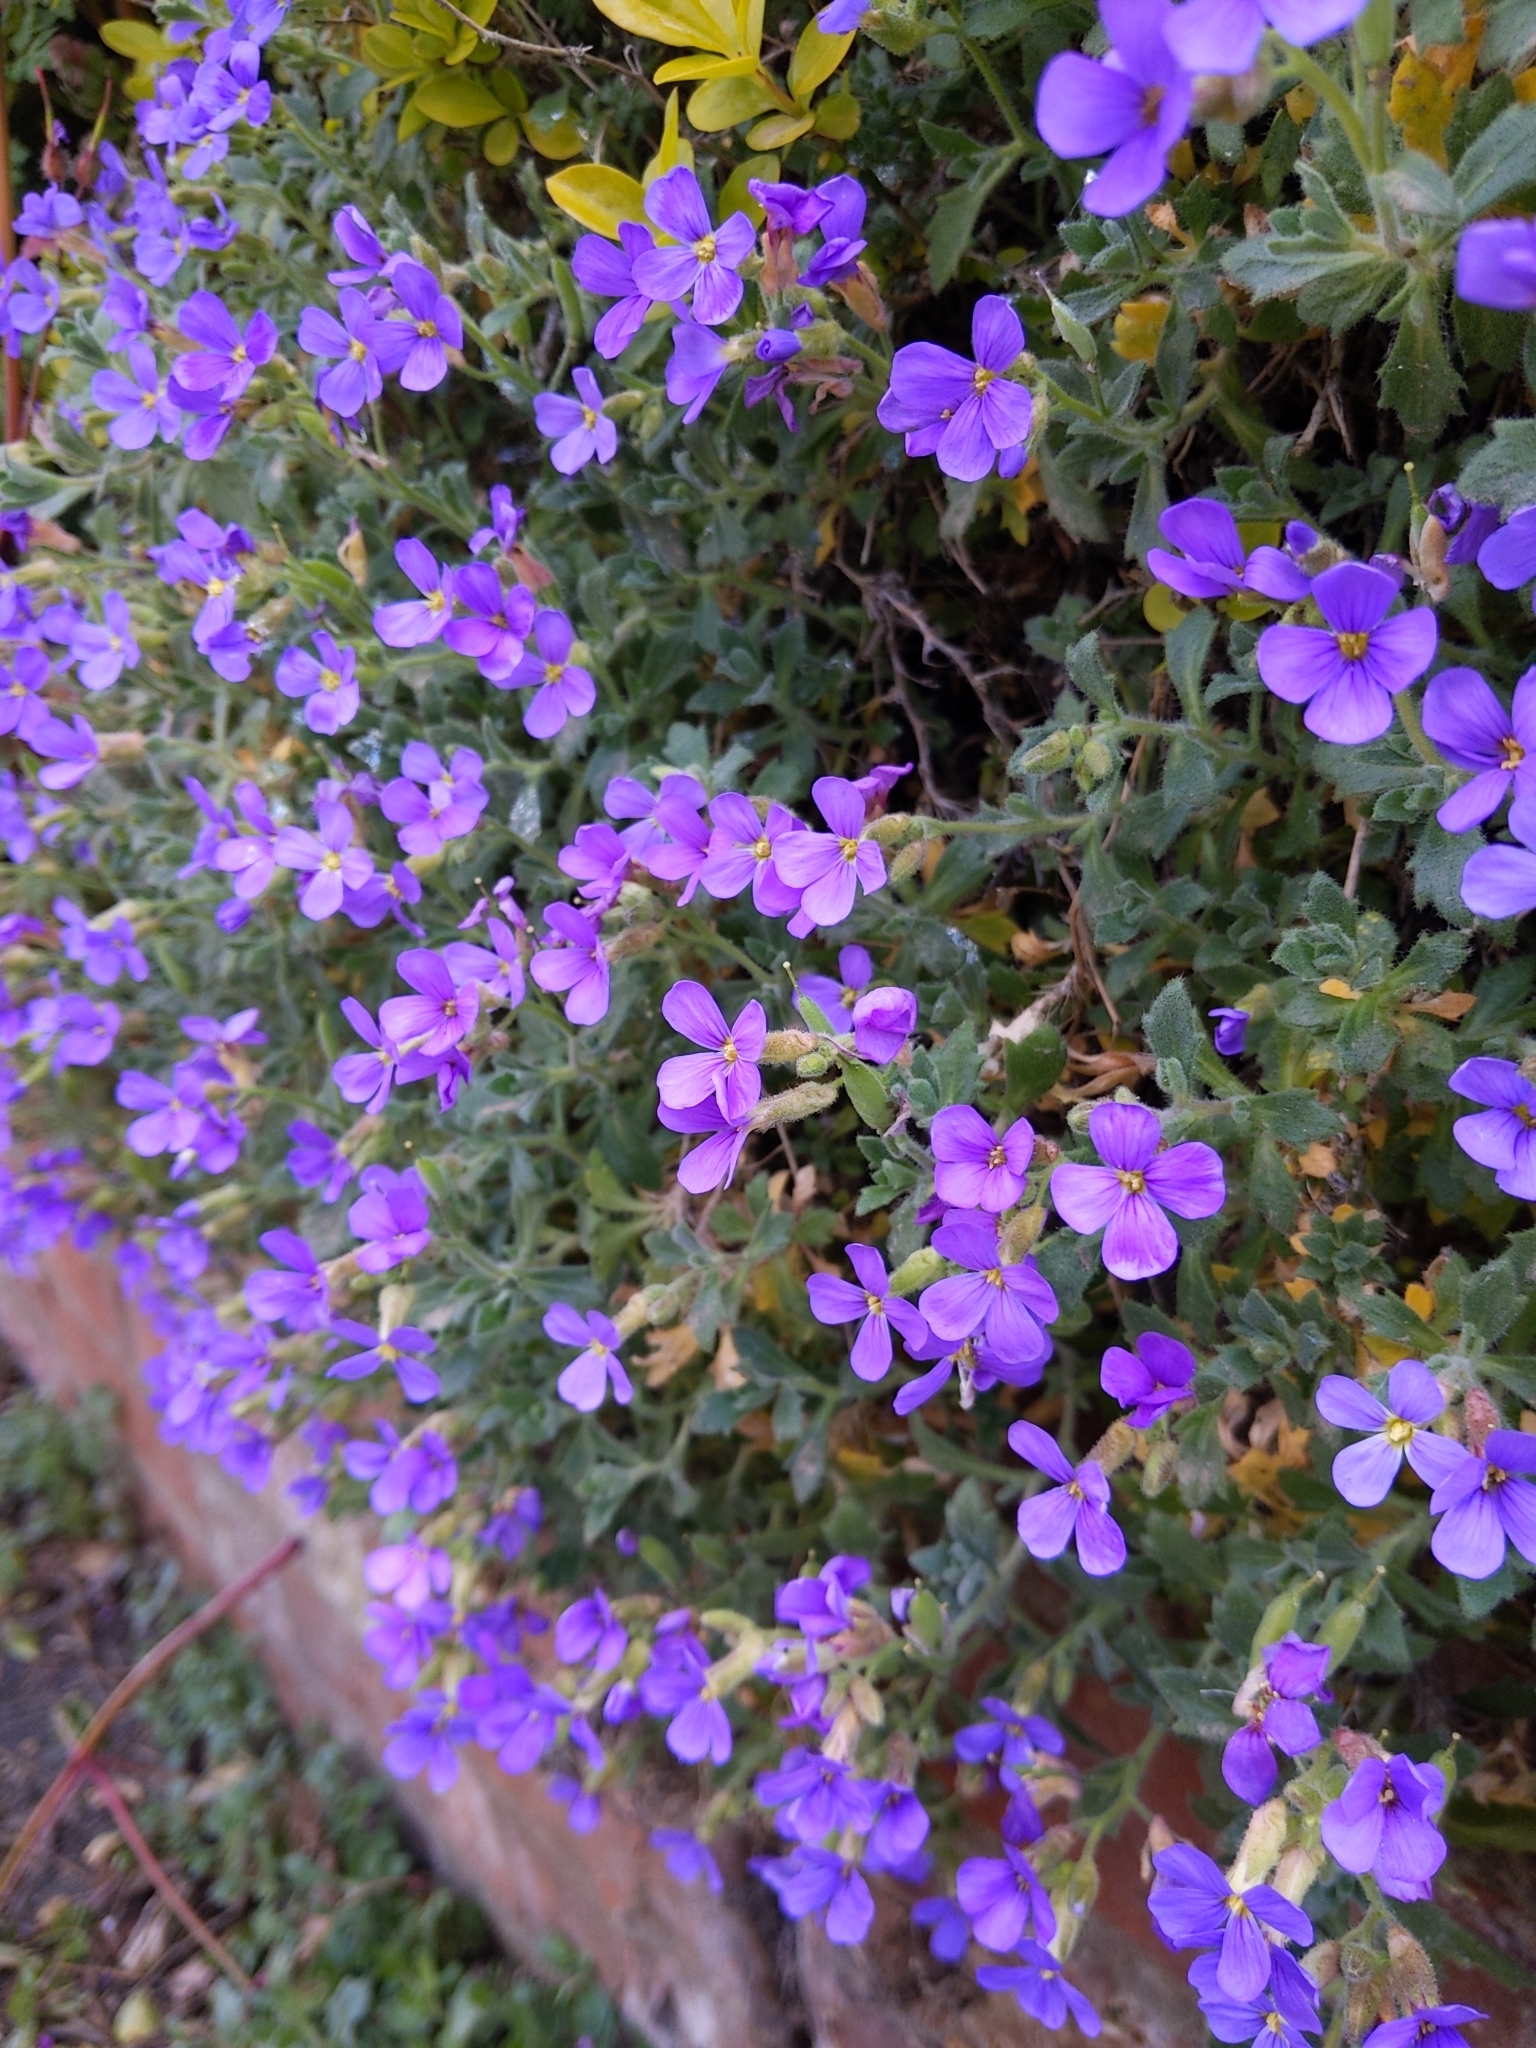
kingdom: Plantae
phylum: Tracheophyta
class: Magnoliopsida
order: Brassicales
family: Brassicaceae
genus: Aubrieta
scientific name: Aubrieta deltoidea
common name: Aubretia
